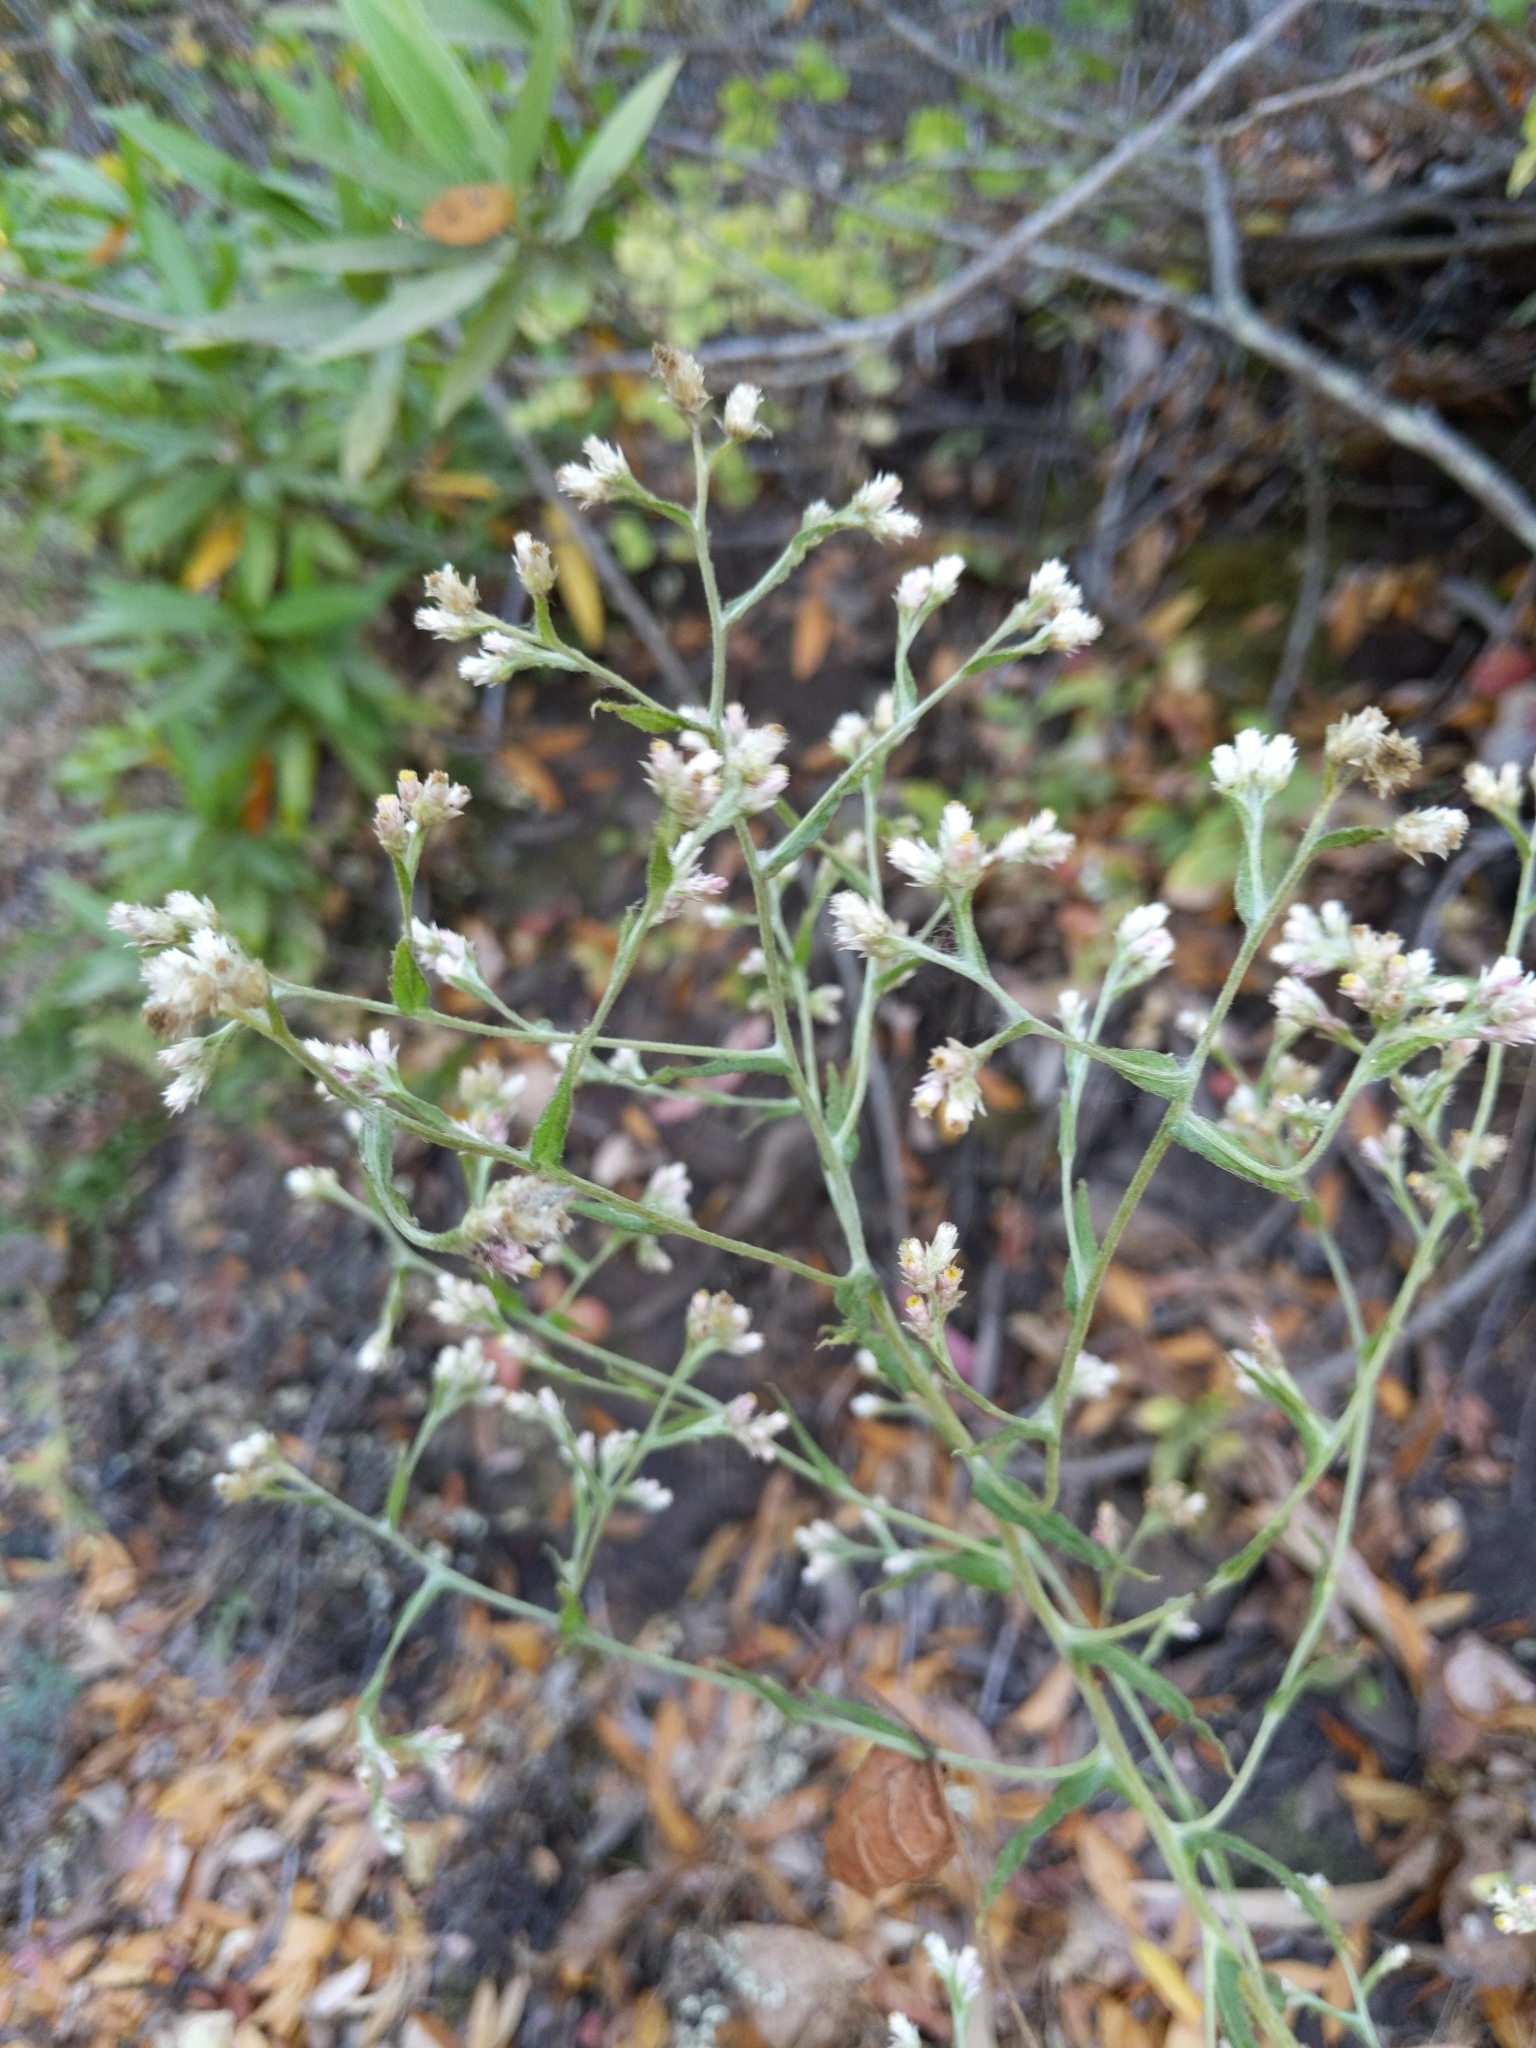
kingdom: Plantae
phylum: Tracheophyta
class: Magnoliopsida
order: Asterales
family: Asteraceae
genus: Pseudognaphalium
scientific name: Pseudognaphalium ramosissimum
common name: Pink rabbit-tobacco
